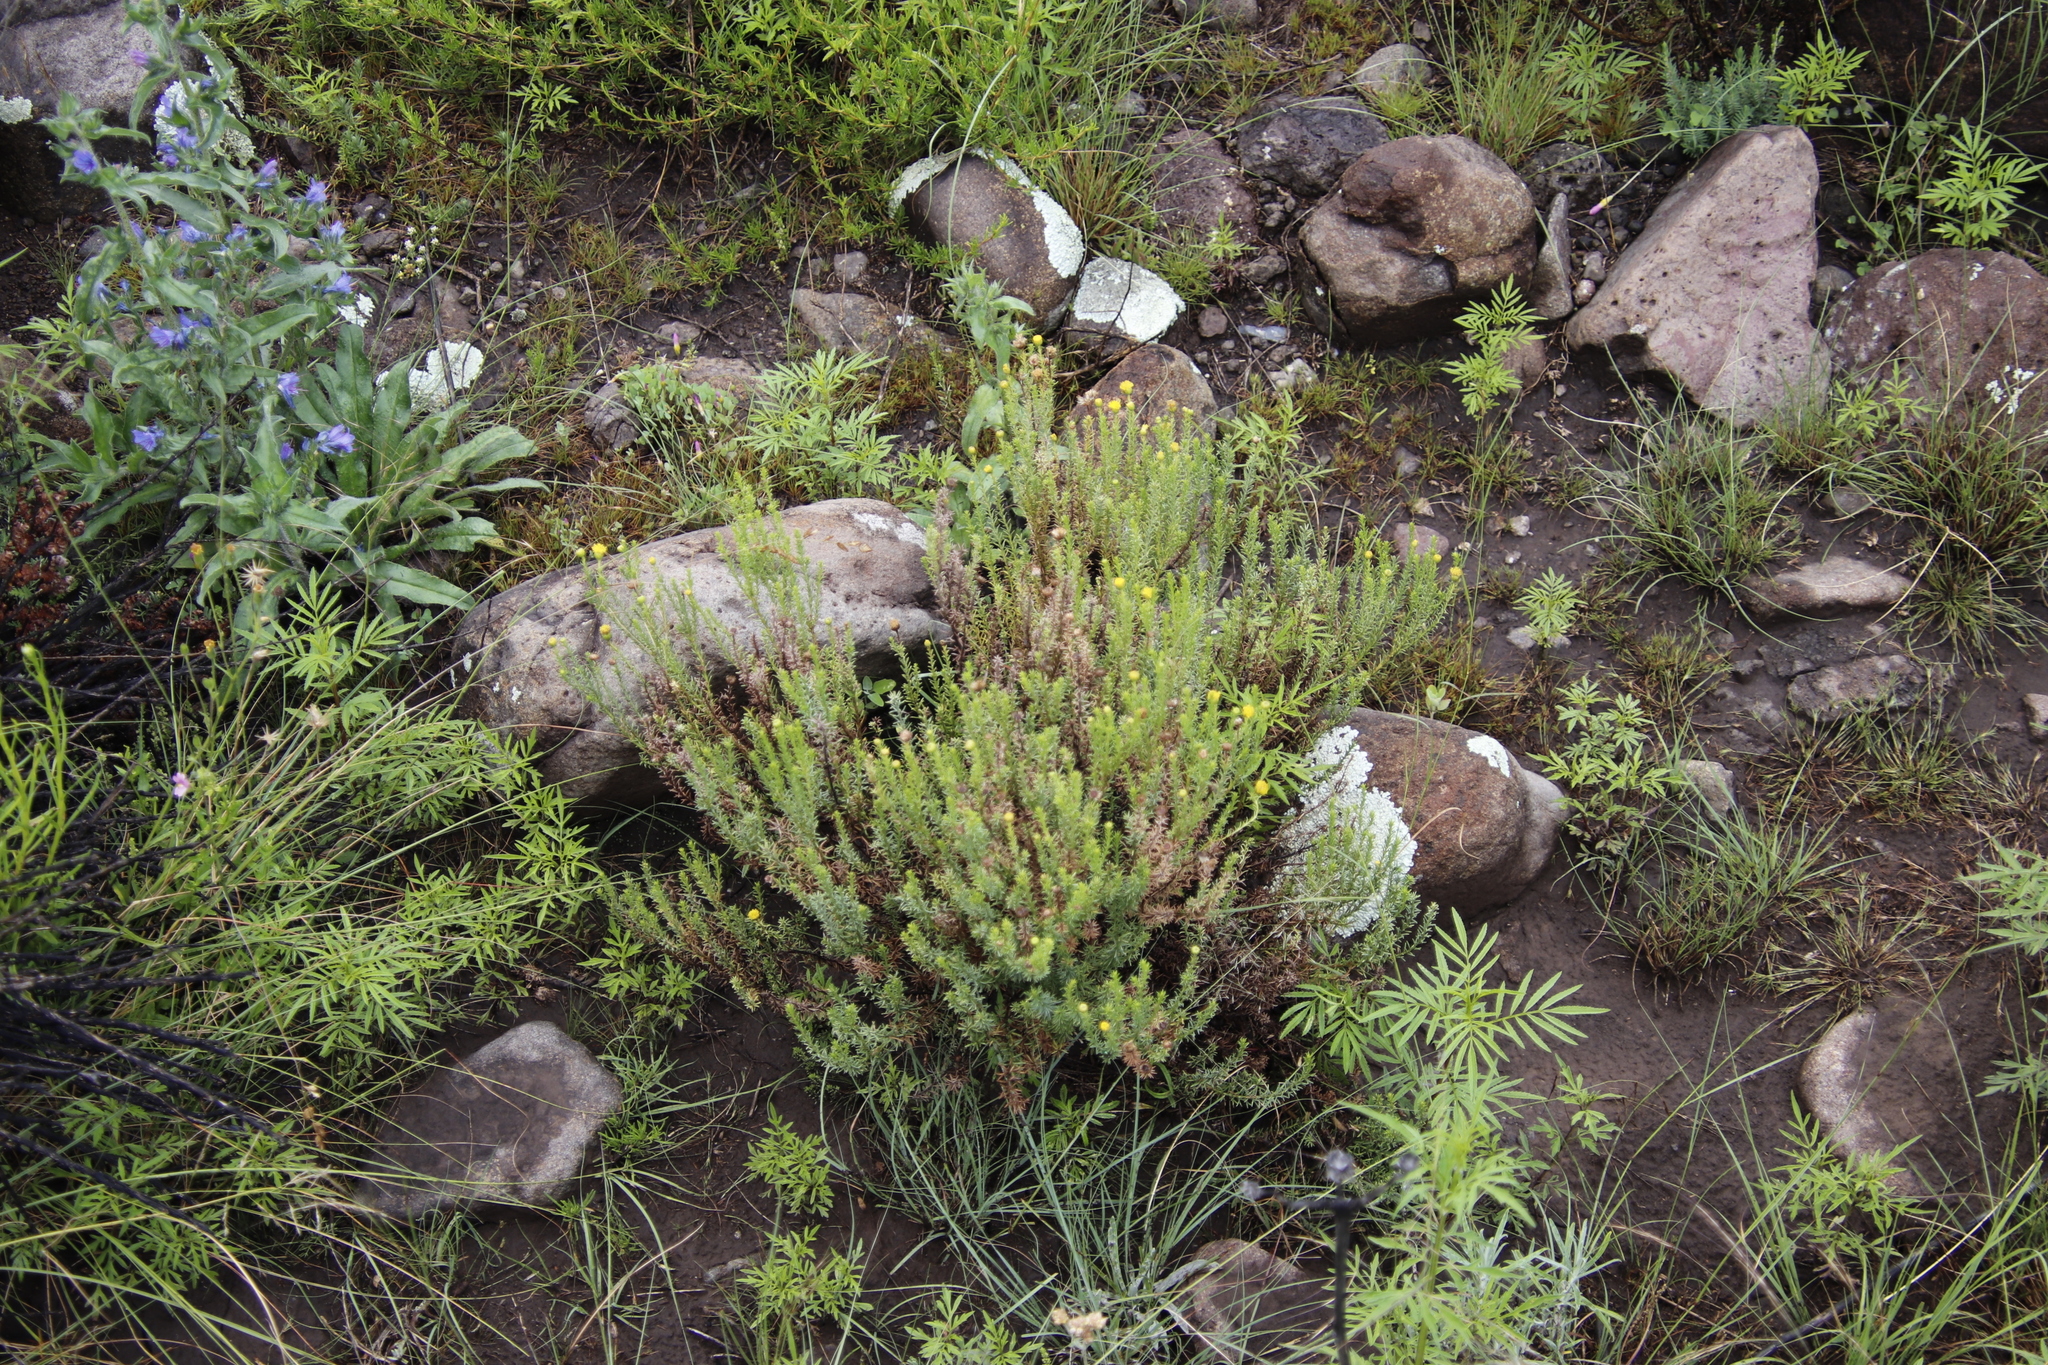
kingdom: Plantae
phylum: Tracheophyta
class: Magnoliopsida
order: Asterales
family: Asteraceae
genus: Chrysocoma
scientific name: Chrysocoma ciliata
